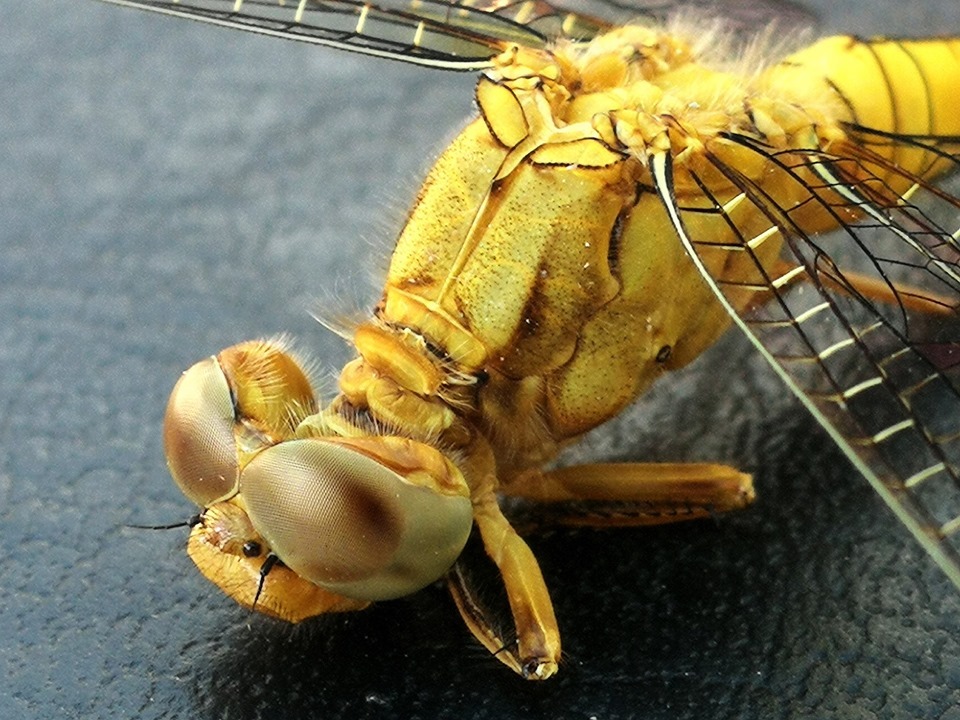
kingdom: Animalia
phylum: Arthropoda
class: Insecta
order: Odonata
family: Libellulidae
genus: Orthetrum
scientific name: Orthetrum coerulescens
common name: Keeled skimmer
